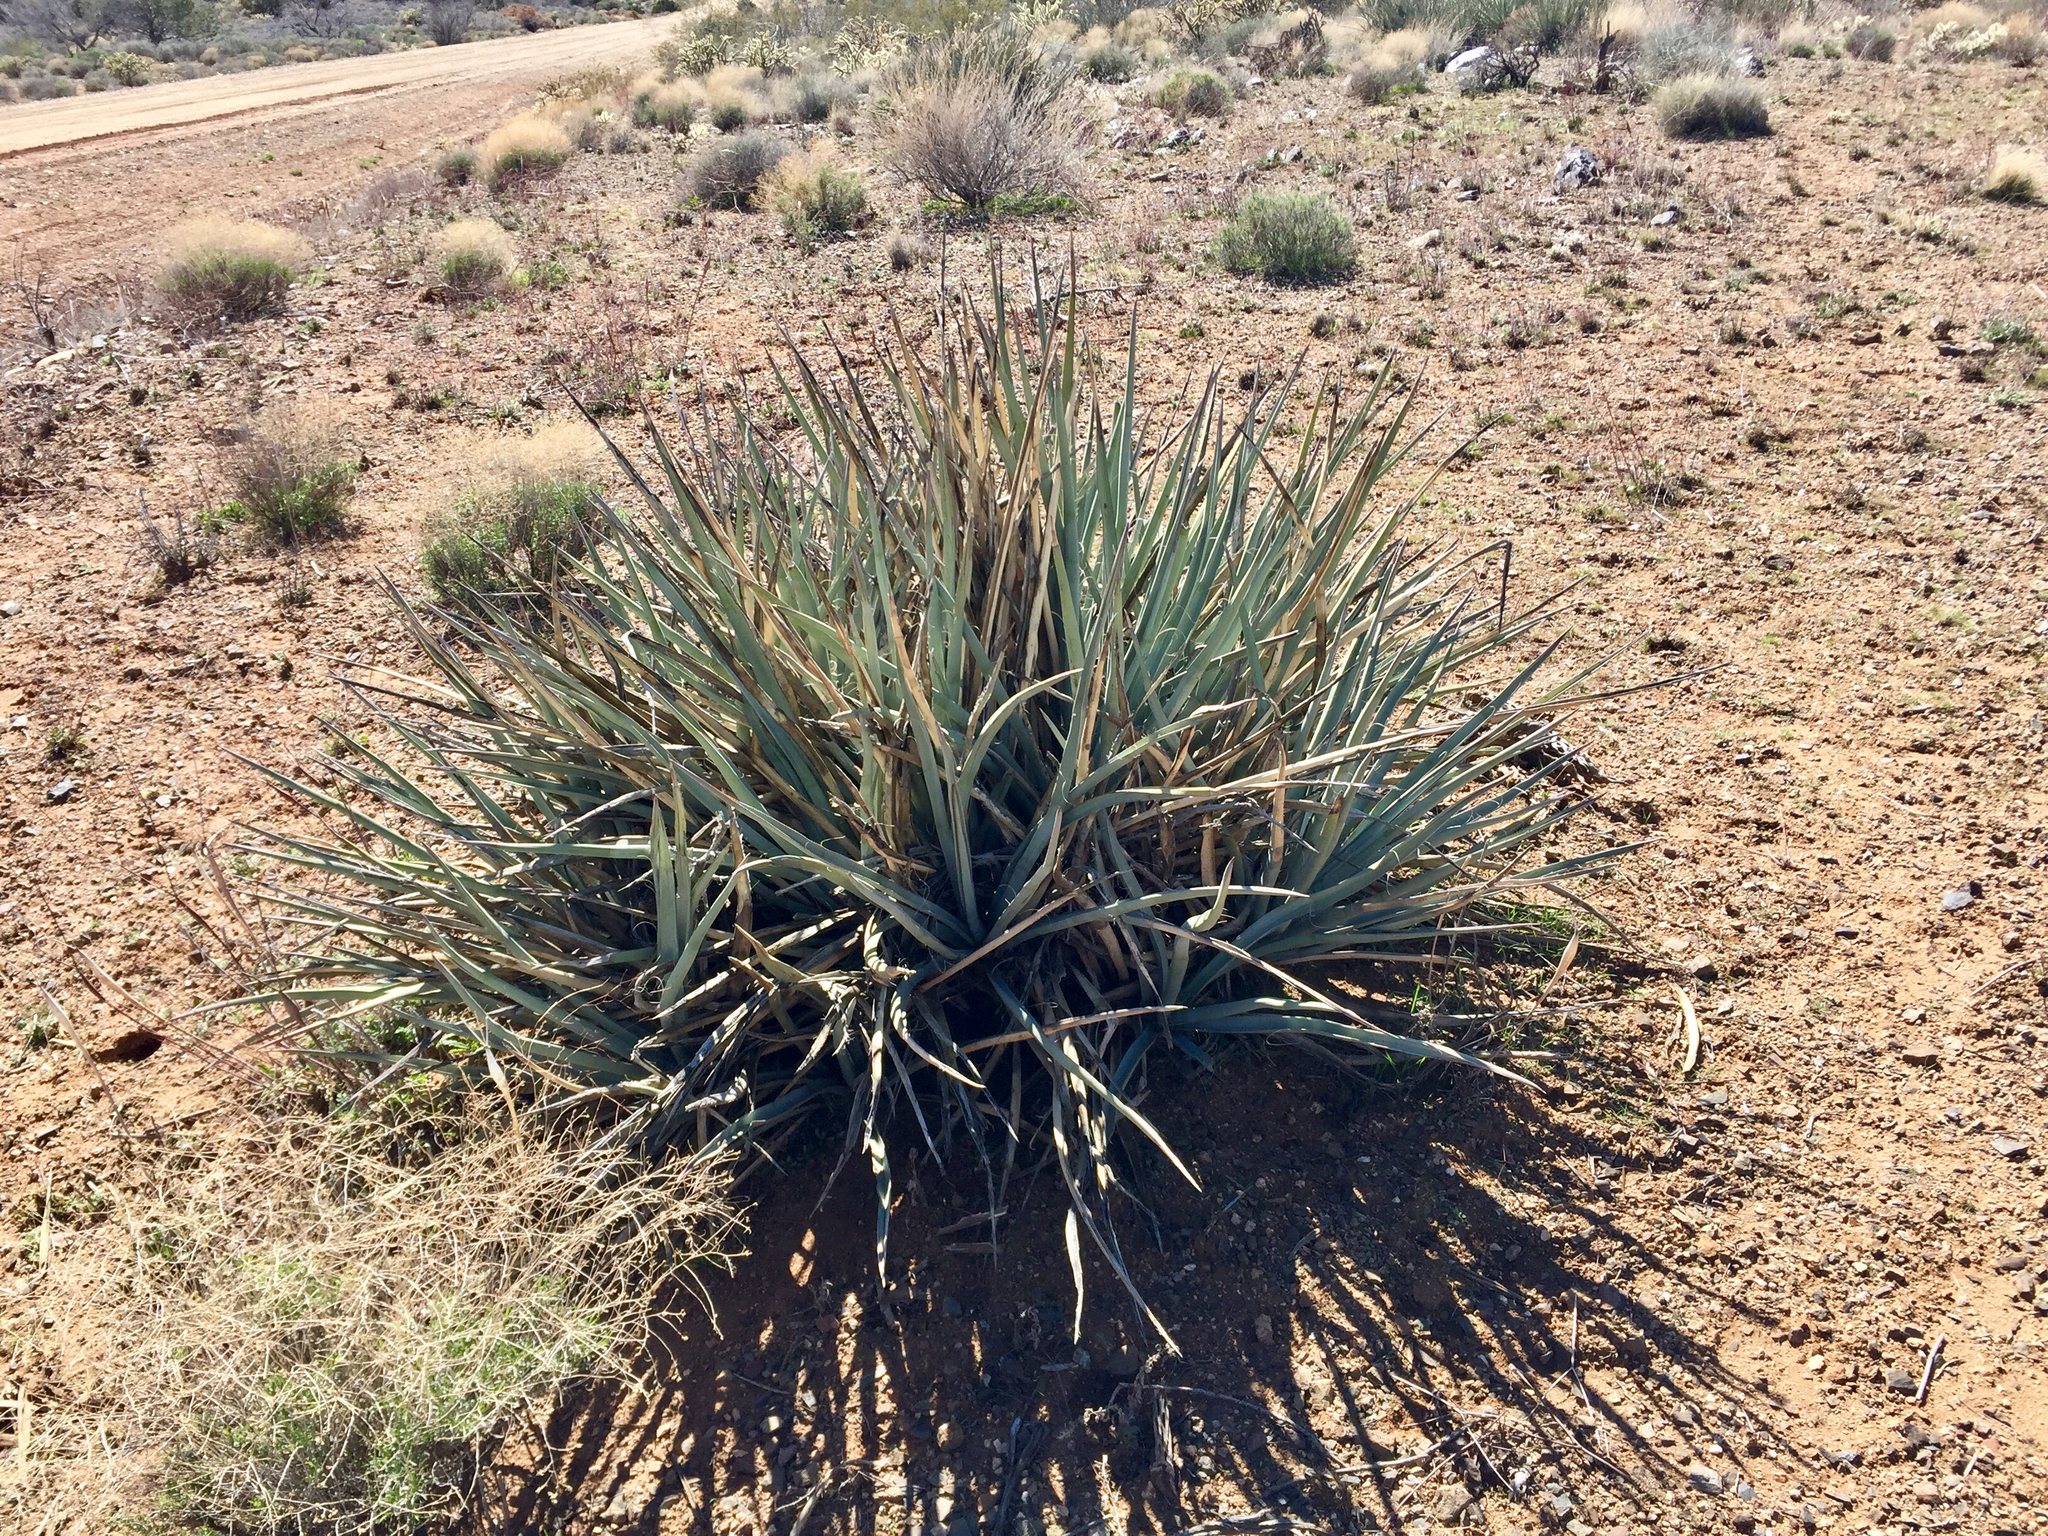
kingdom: Plantae
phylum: Tracheophyta
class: Liliopsida
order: Asparagales
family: Asparagaceae
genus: Yucca
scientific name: Yucca baccata
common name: Banana yucca
